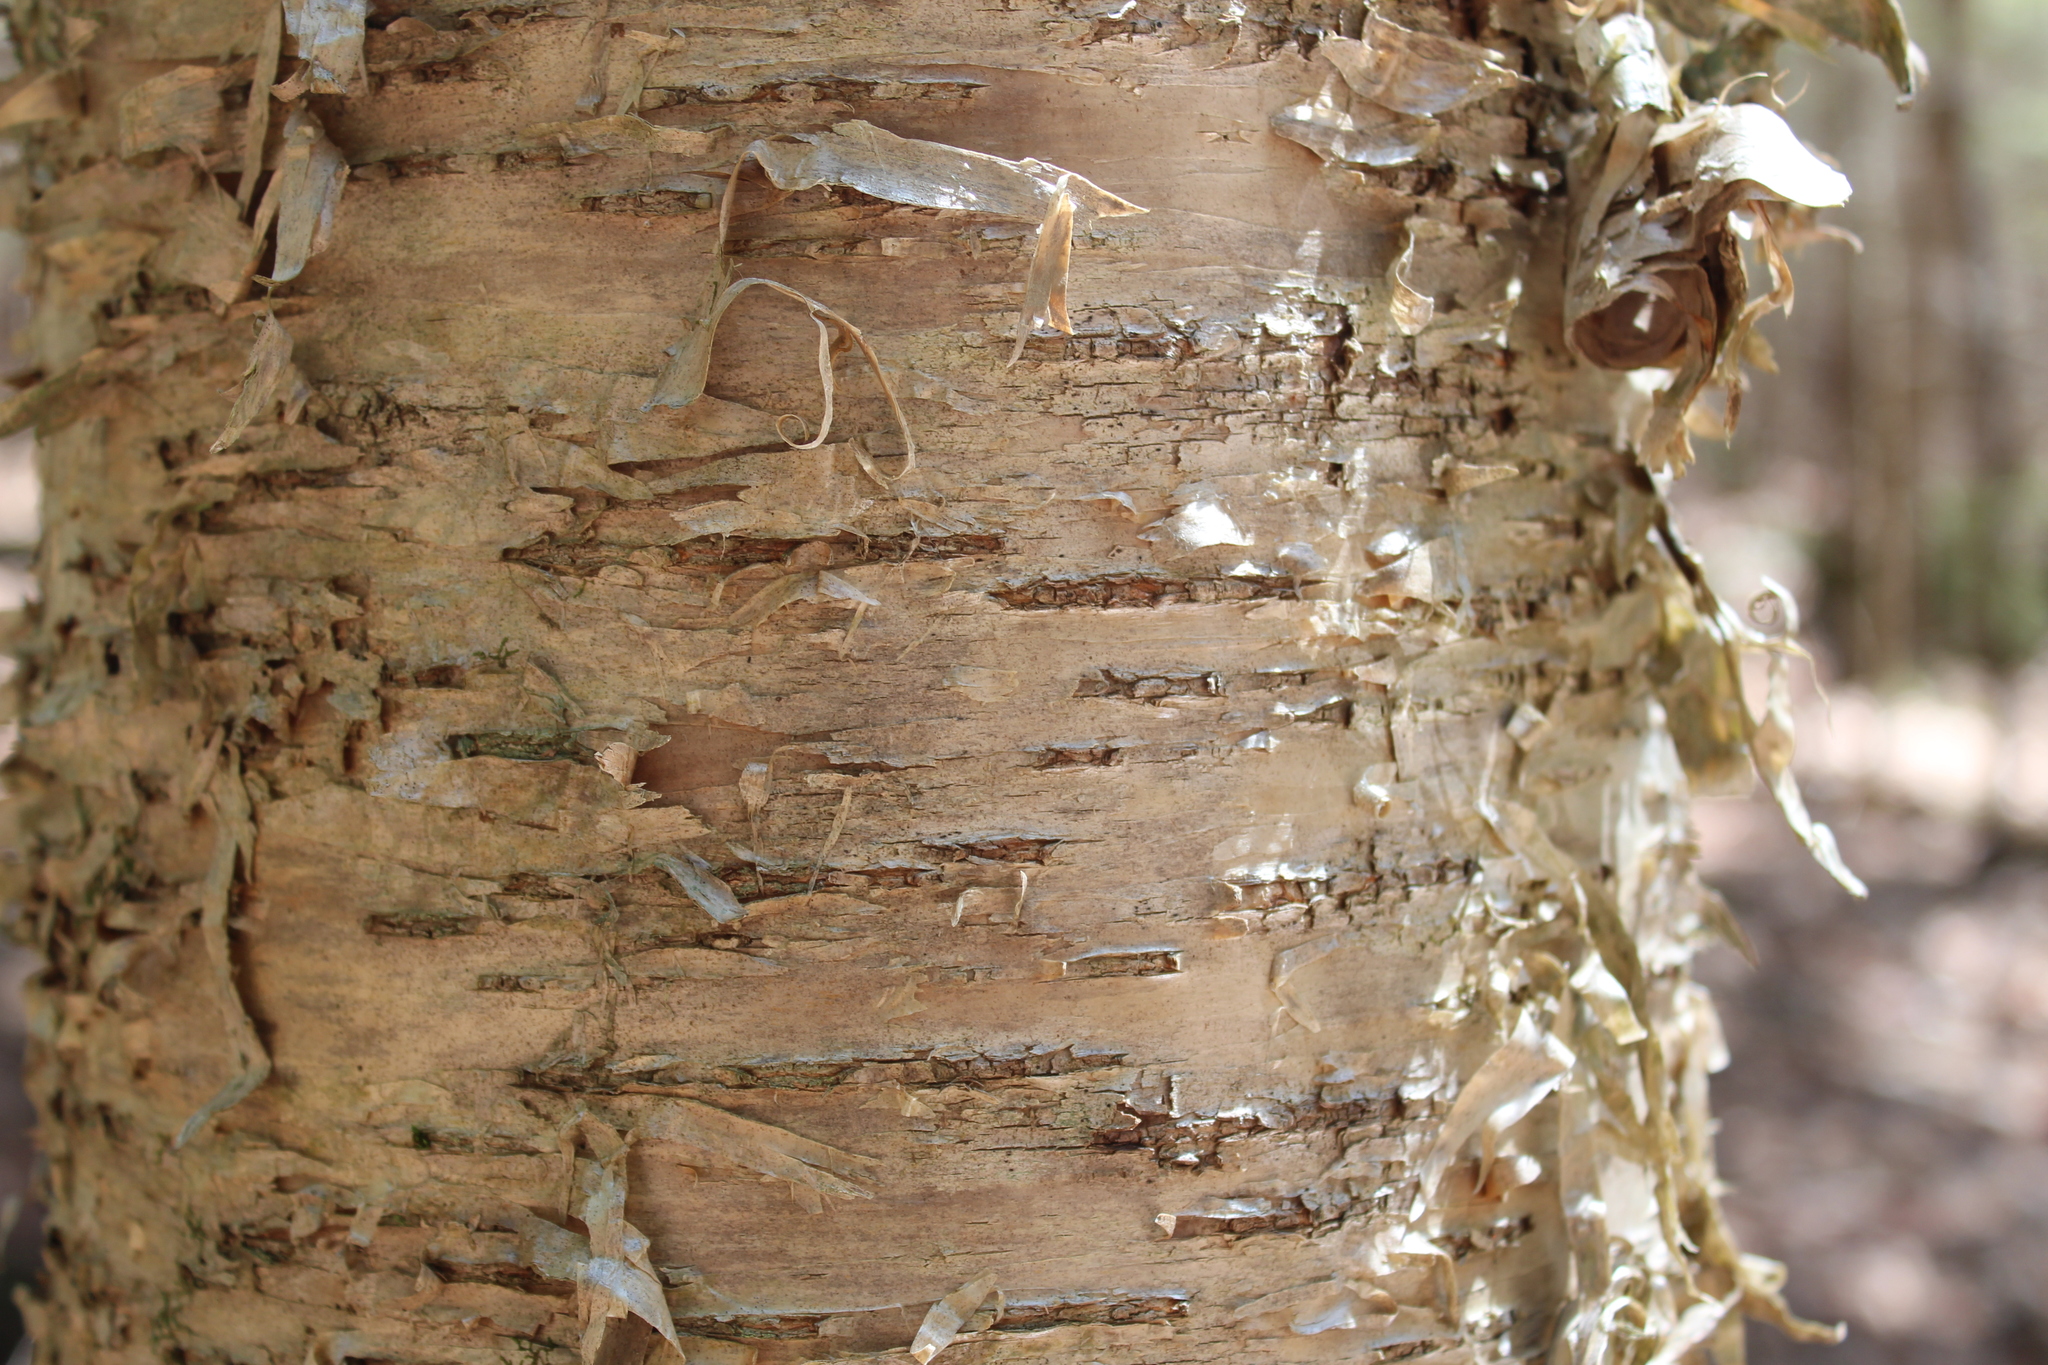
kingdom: Plantae
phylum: Tracheophyta
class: Magnoliopsida
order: Fagales
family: Betulaceae
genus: Betula
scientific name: Betula alleghaniensis
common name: Yellow birch
